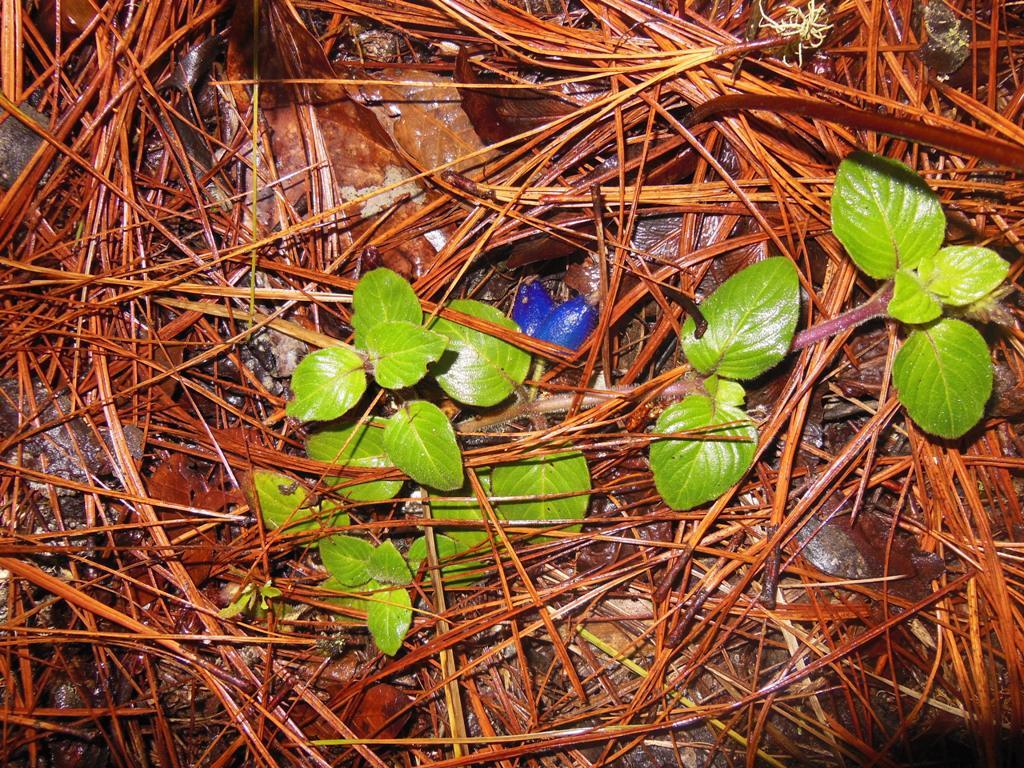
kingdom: Plantae
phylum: Tracheophyta
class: Magnoliopsida
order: Gentianales
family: Rubiaceae
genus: Coccocypselum
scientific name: Coccocypselum cordifolium
